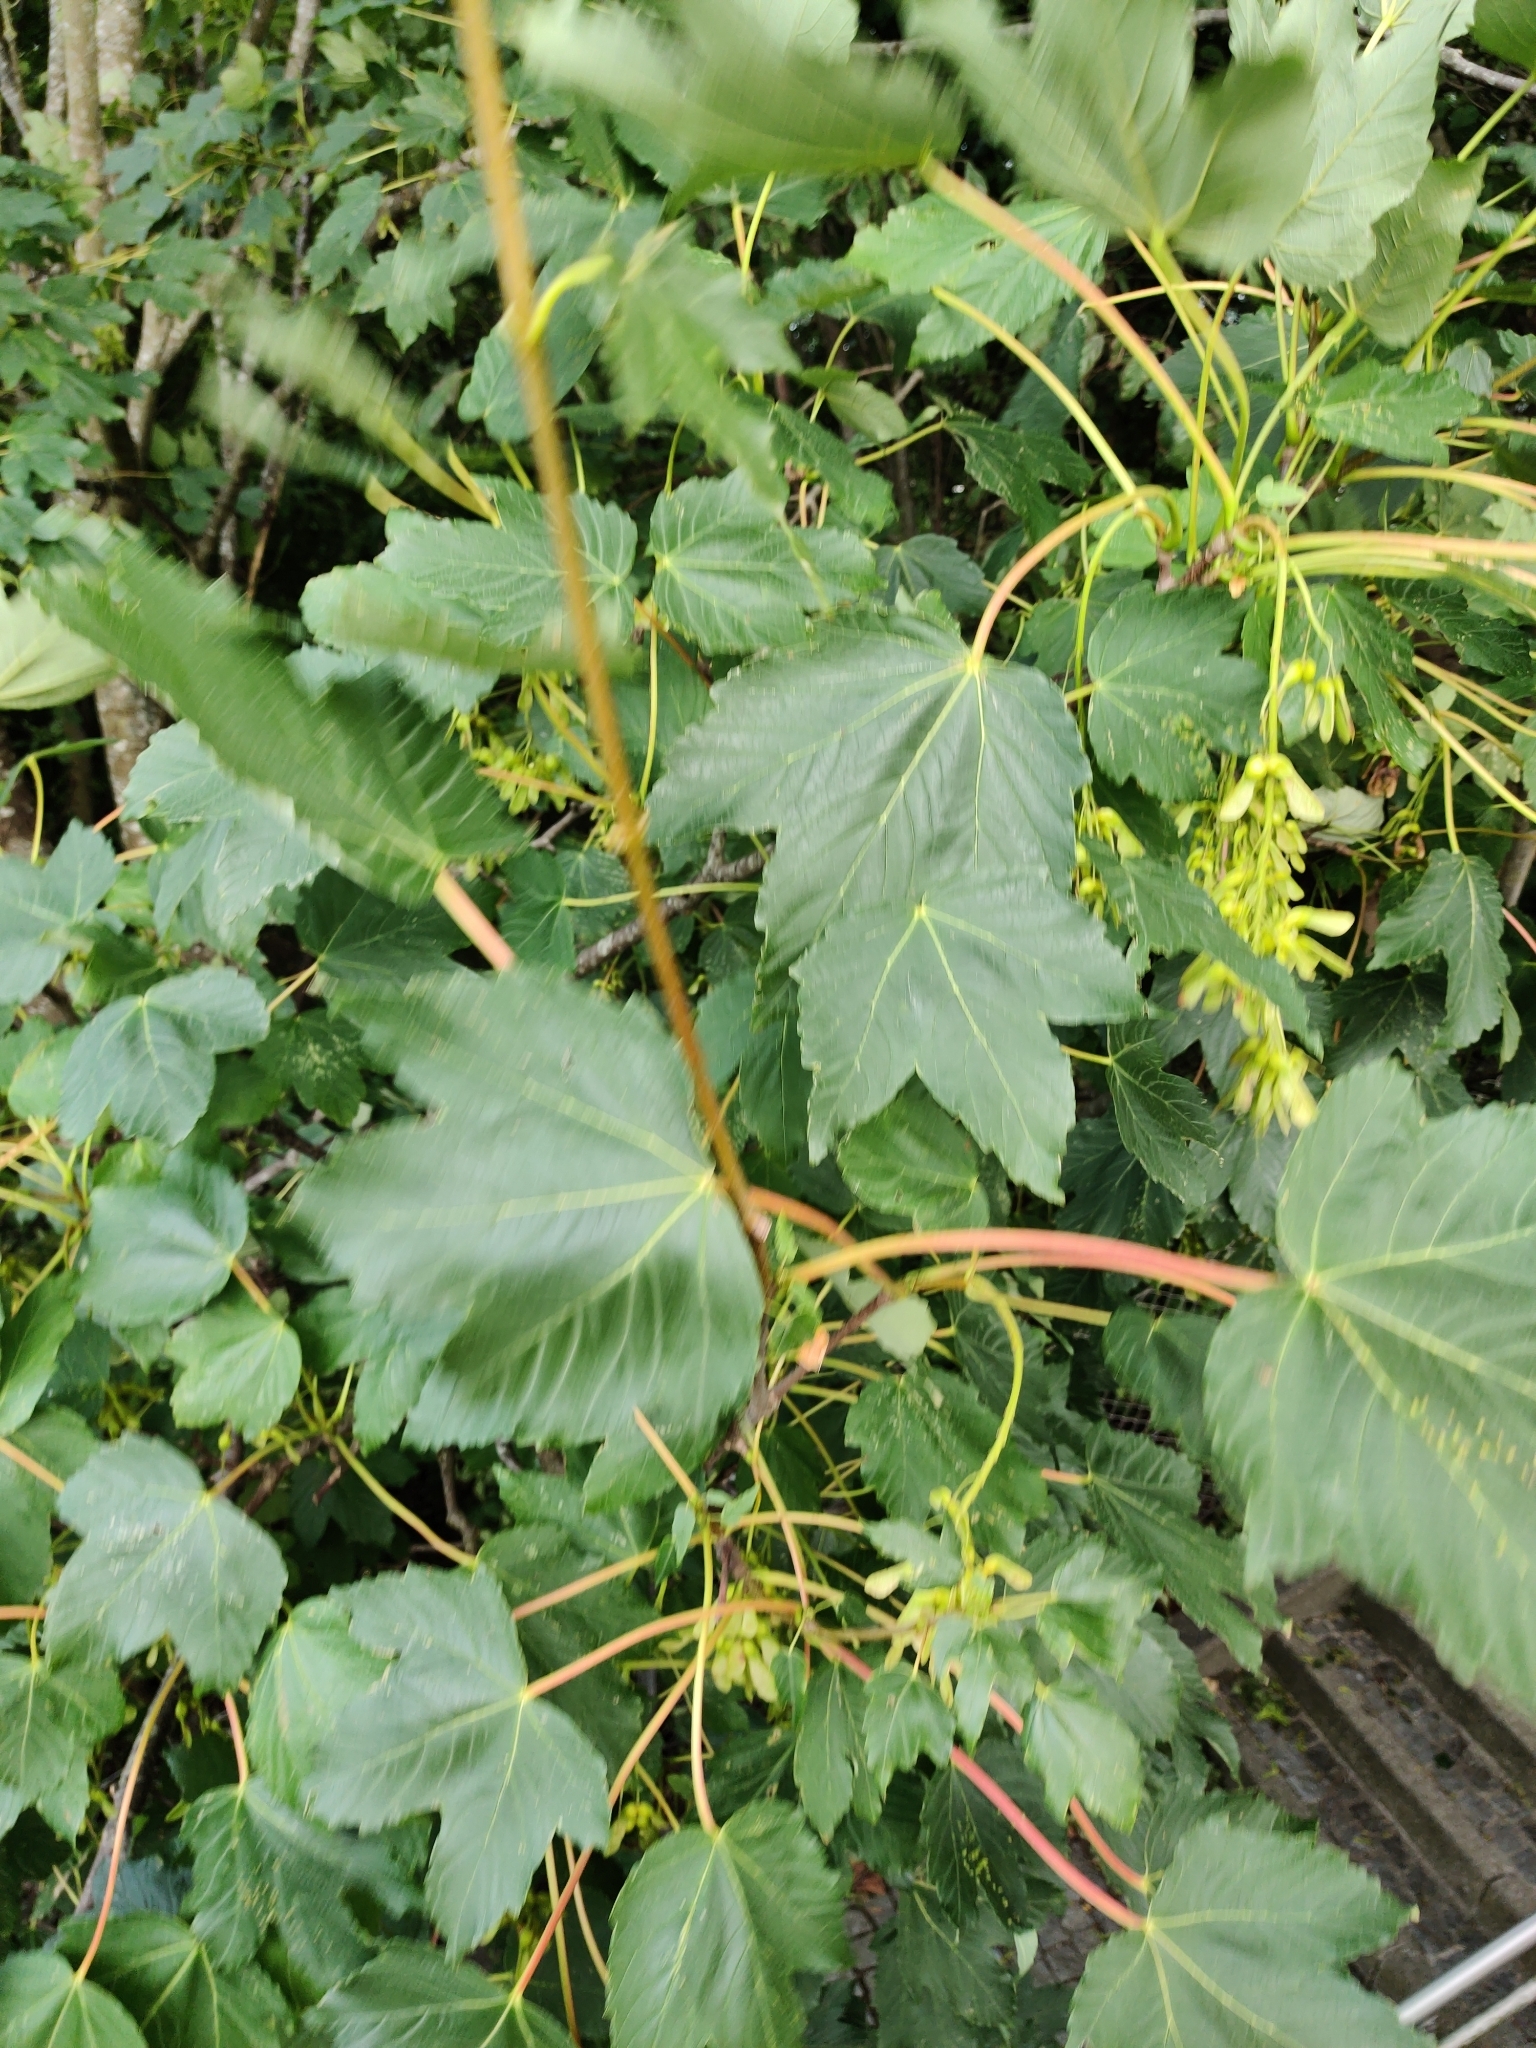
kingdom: Plantae
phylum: Tracheophyta
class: Magnoliopsida
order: Sapindales
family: Sapindaceae
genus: Acer
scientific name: Acer pseudoplatanus
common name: Sycamore
